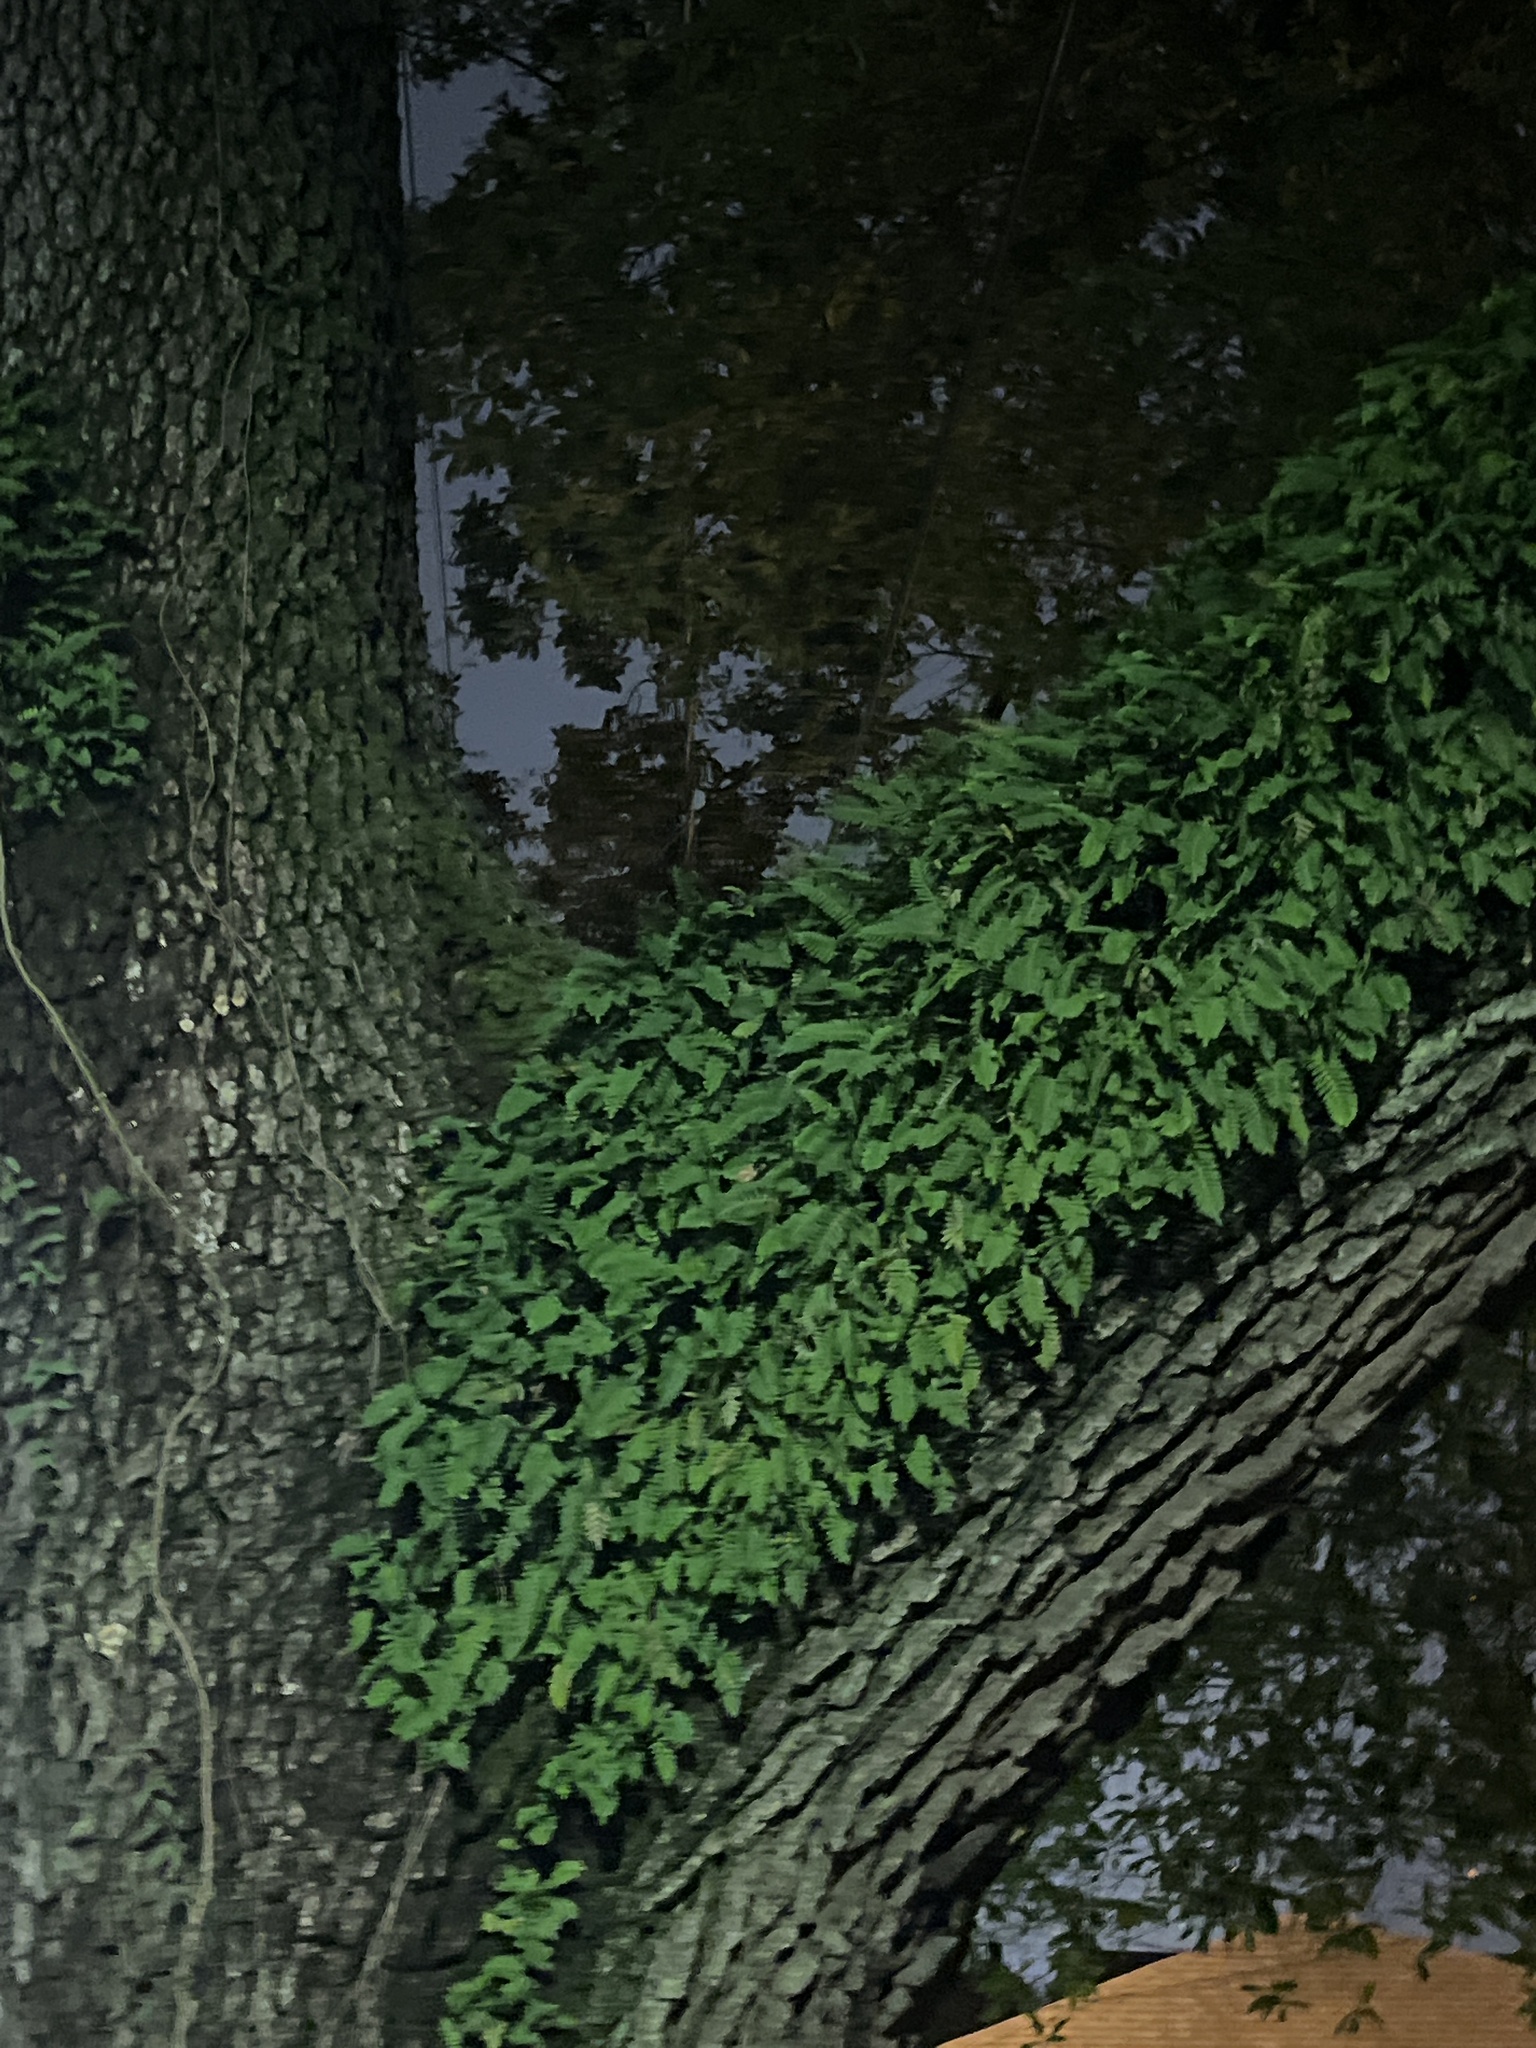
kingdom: Plantae
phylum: Tracheophyta
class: Polypodiopsida
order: Polypodiales
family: Polypodiaceae
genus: Pleopeltis
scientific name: Pleopeltis michauxiana
